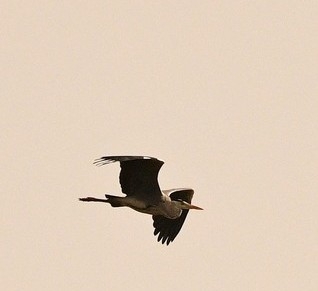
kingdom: Animalia
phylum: Chordata
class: Aves
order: Pelecaniformes
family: Ardeidae
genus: Ardea
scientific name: Ardea cinerea
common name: Grey heron
